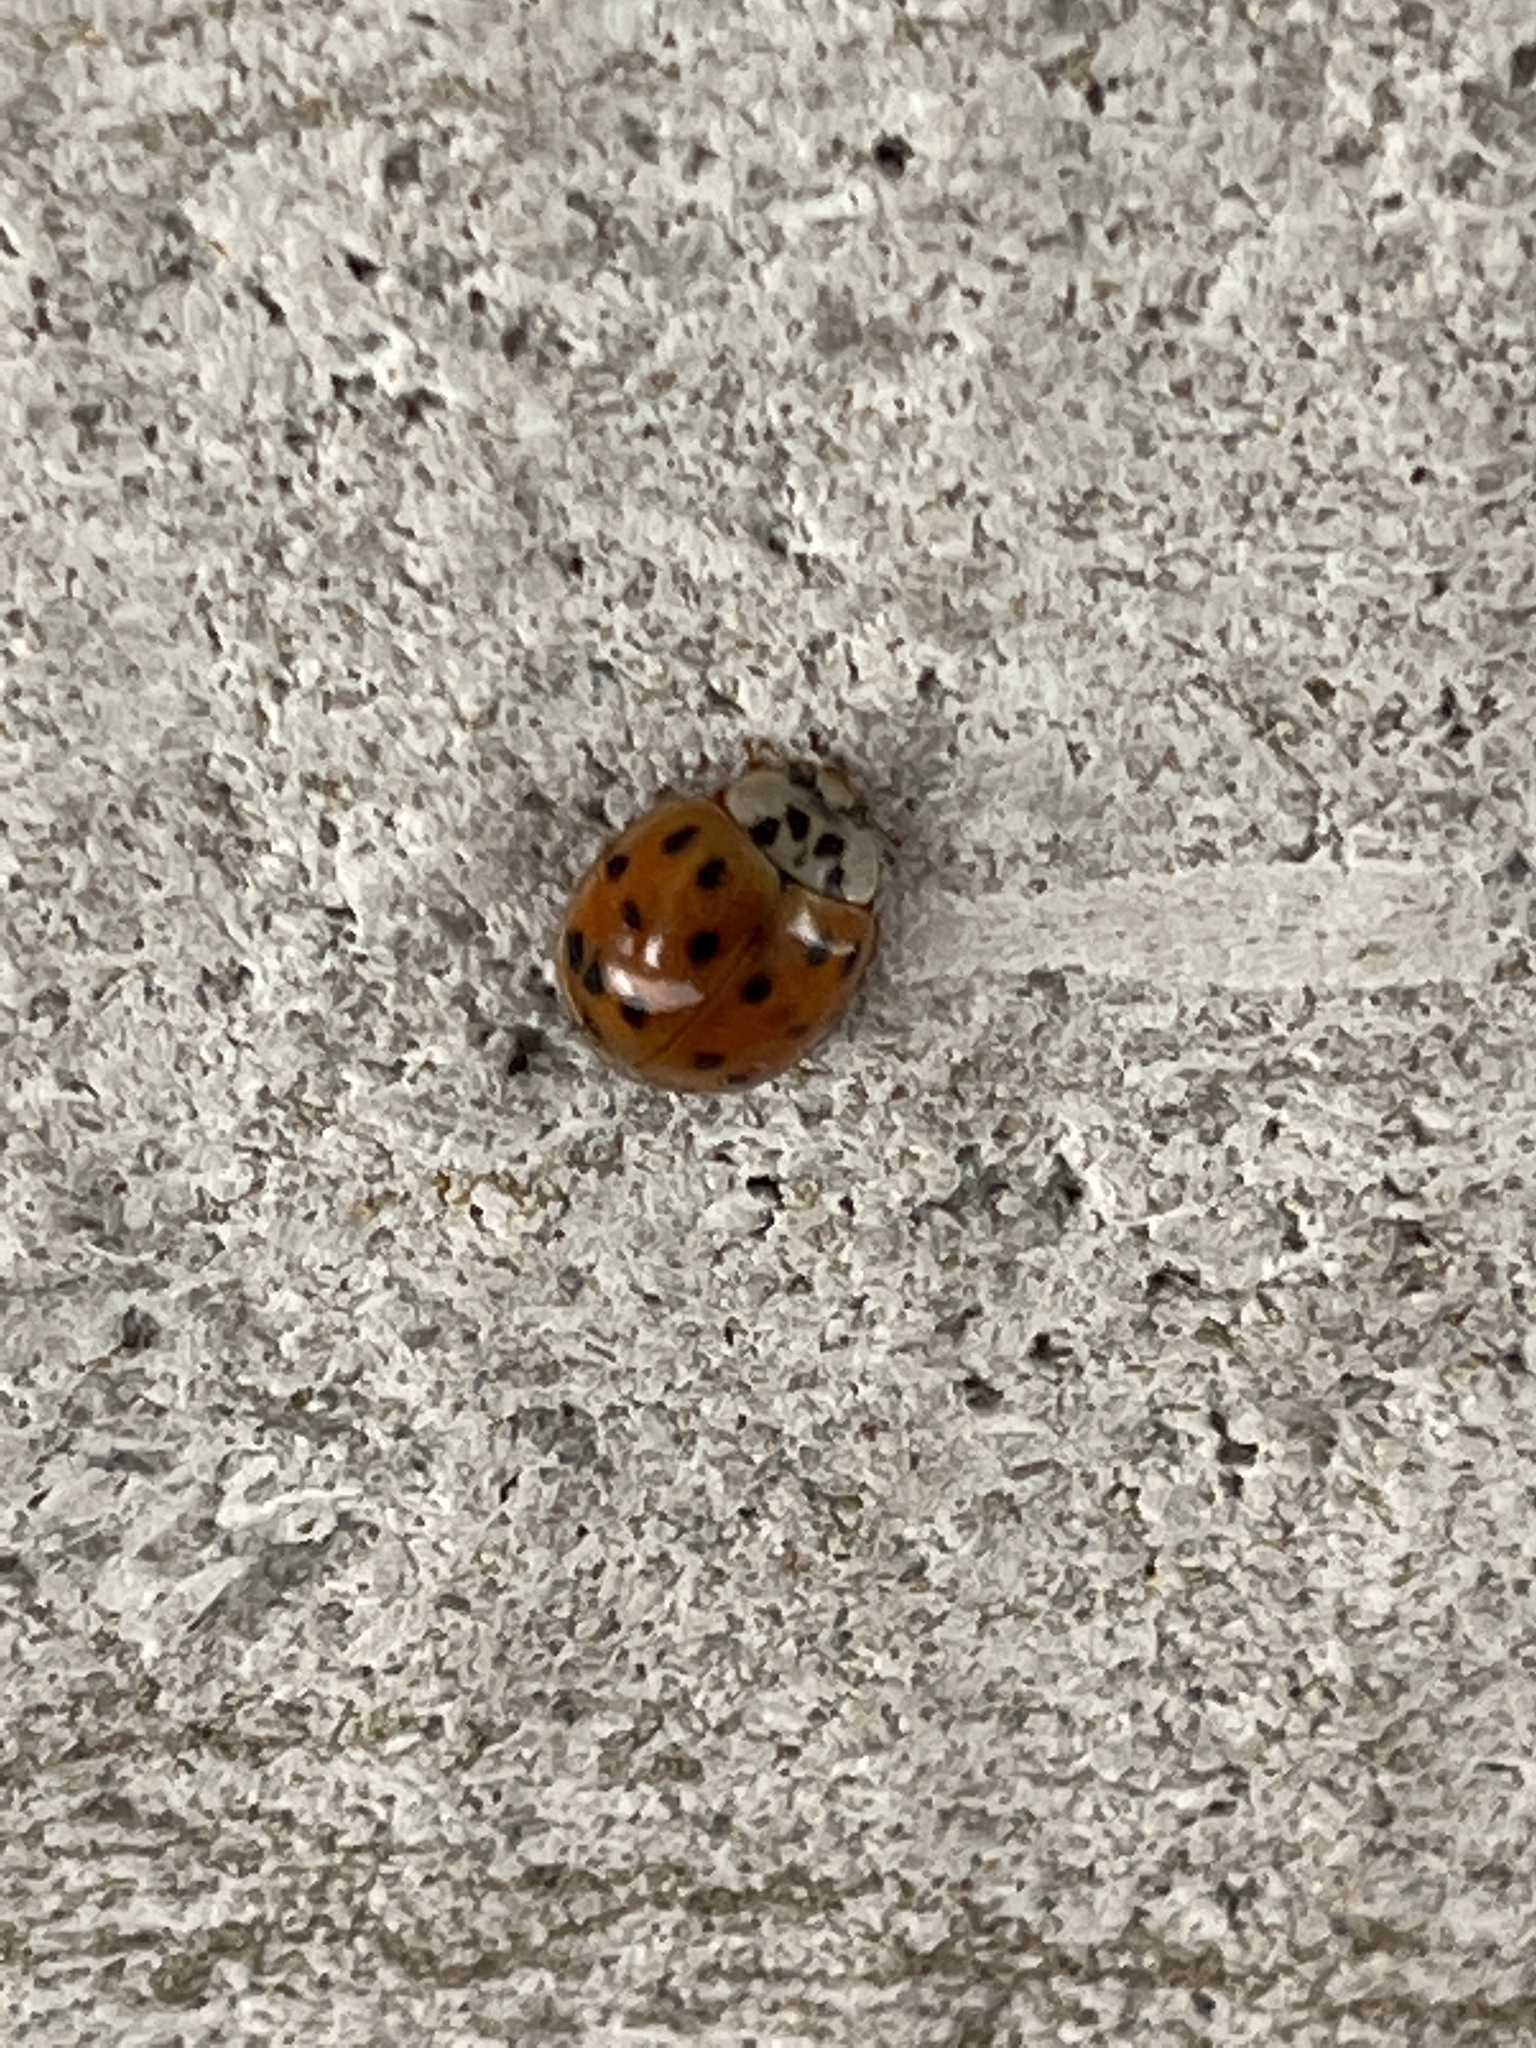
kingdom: Animalia
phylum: Arthropoda
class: Insecta
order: Coleoptera
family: Coccinellidae
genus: Harmonia
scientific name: Harmonia axyridis
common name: Harlequin ladybird
